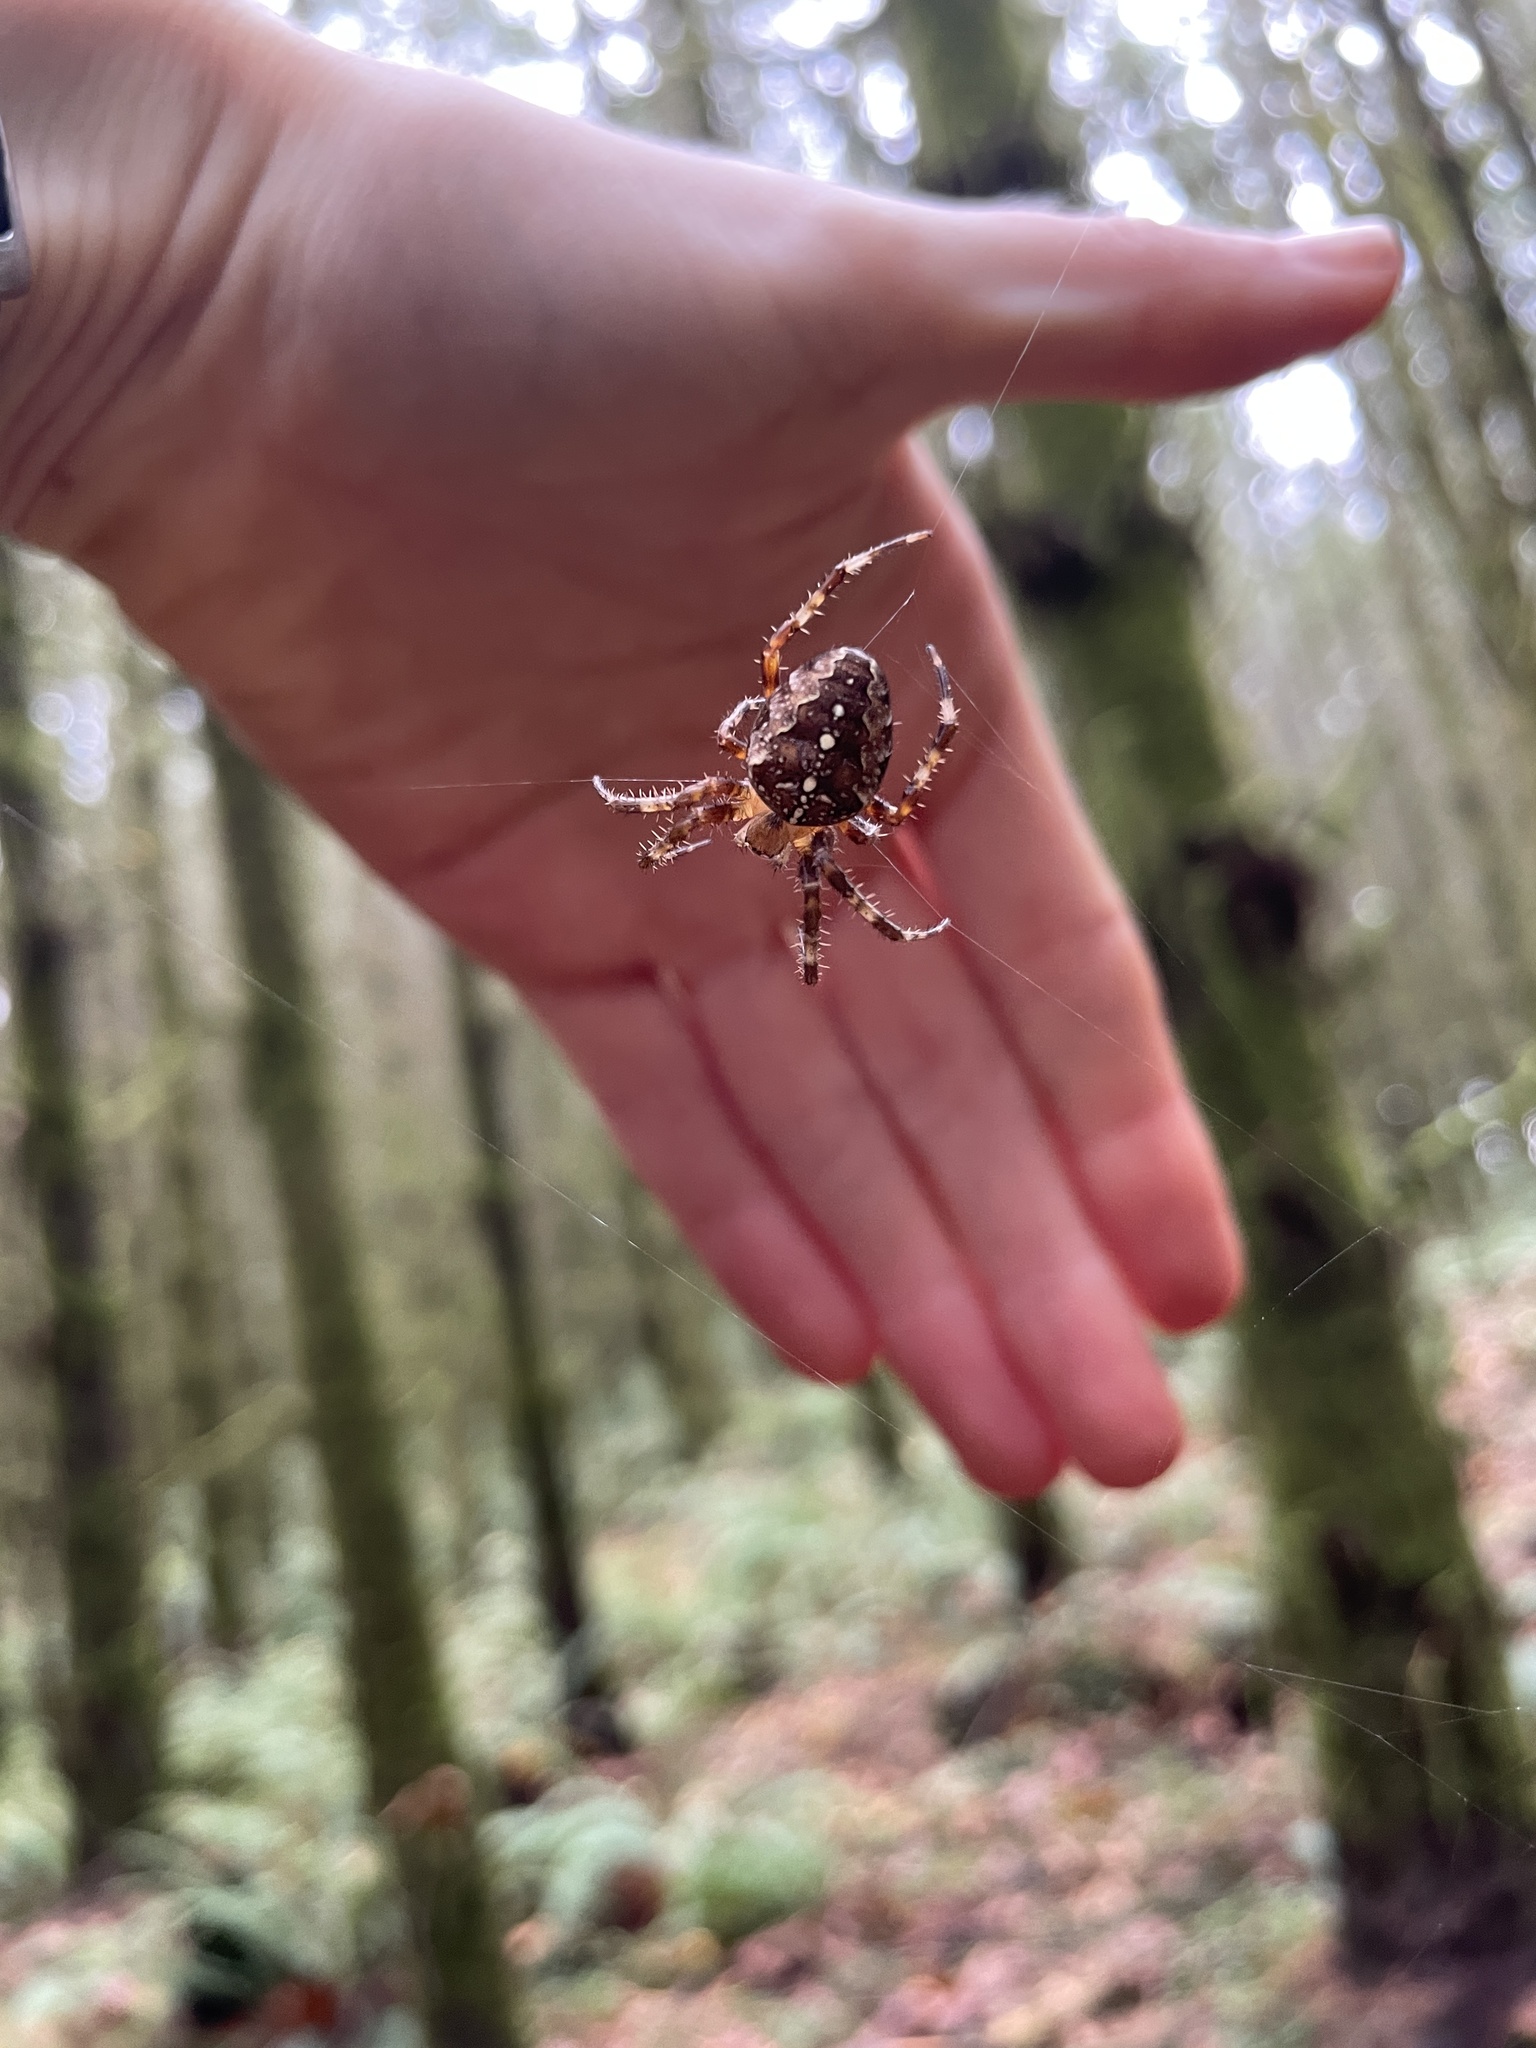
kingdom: Animalia
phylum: Arthropoda
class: Arachnida
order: Araneae
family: Araneidae
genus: Araneus
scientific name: Araneus diadematus
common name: Cross orbweaver
